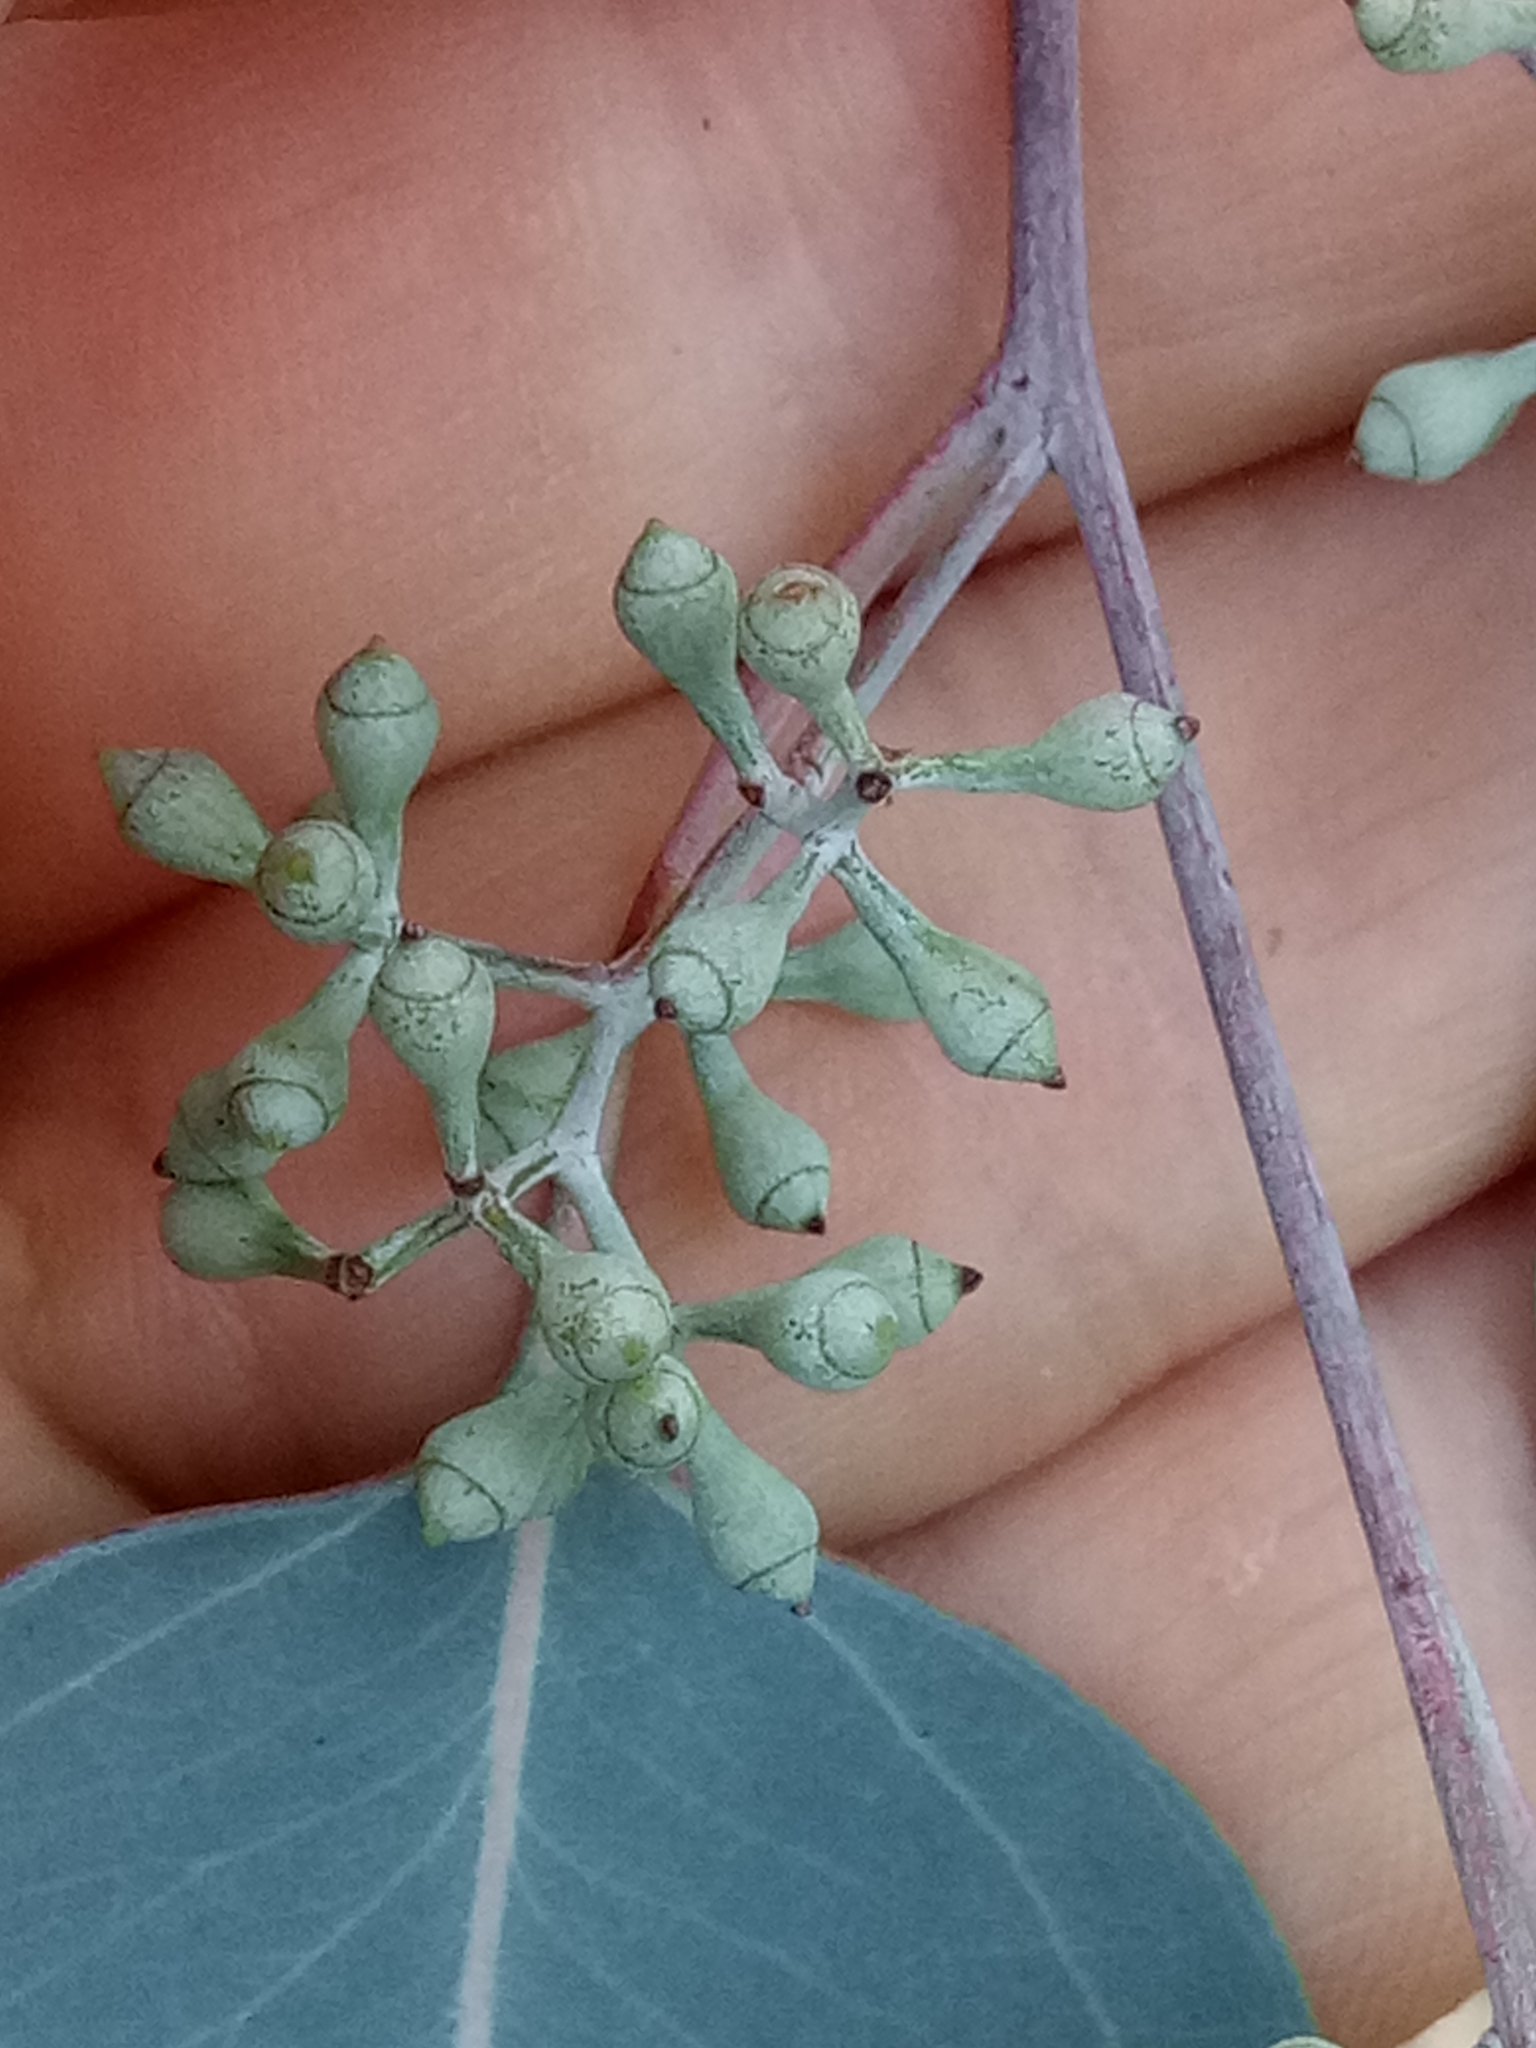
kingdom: Plantae
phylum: Tracheophyta
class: Magnoliopsida
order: Myrtales
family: Myrtaceae
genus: Eucalyptus
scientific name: Eucalyptus cinerea
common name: Argyle apple
